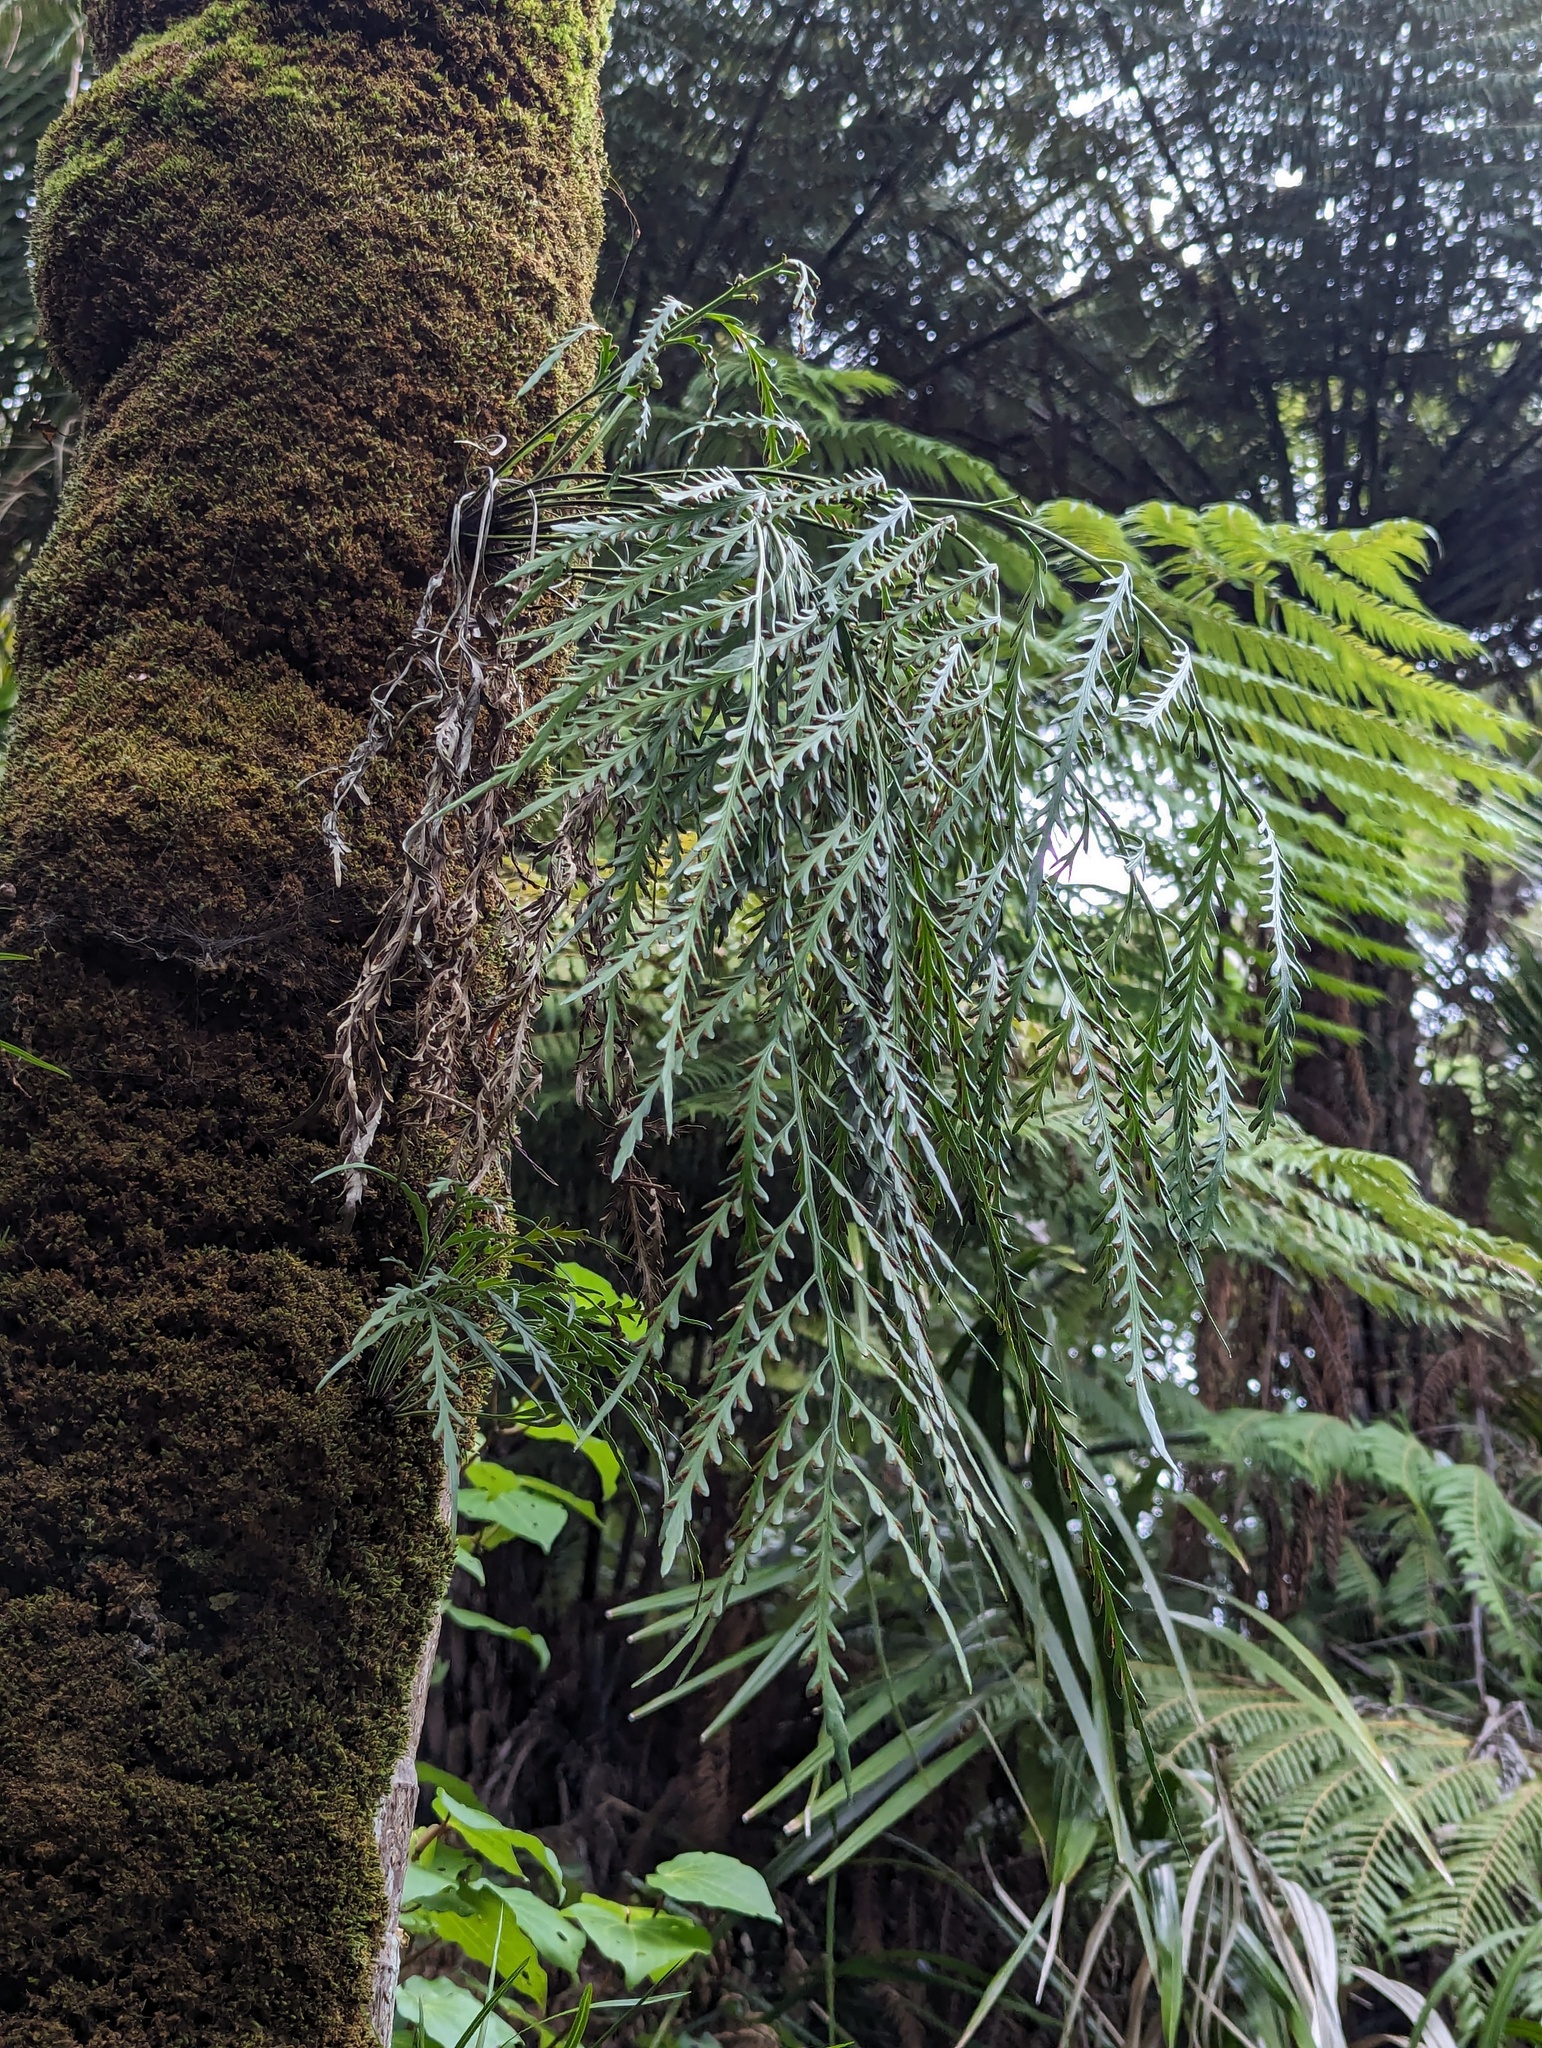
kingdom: Plantae
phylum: Tracheophyta
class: Polypodiopsida
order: Polypodiales
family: Aspleniaceae
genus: Asplenium
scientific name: Asplenium flaccidum
